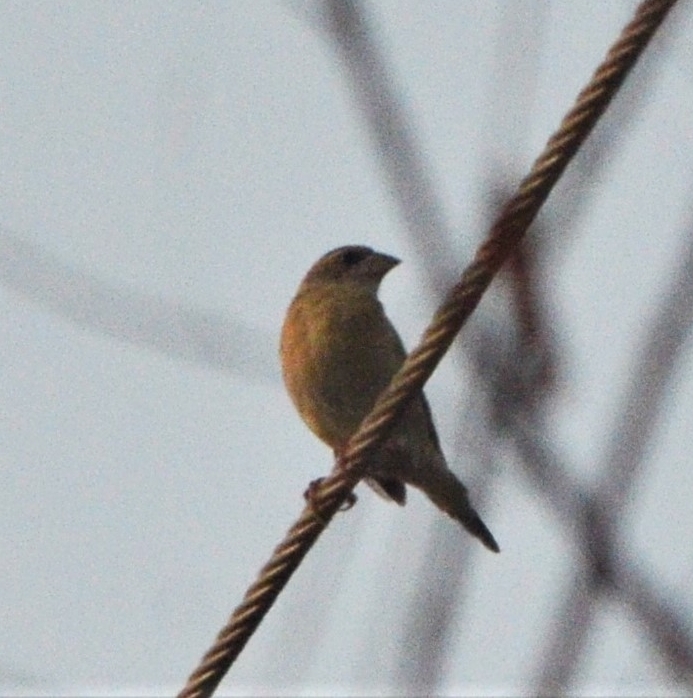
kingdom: Animalia
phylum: Chordata
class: Aves
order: Passeriformes
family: Ploceidae
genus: Ploceus
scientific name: Ploceus philippinus
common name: Baya weaver
